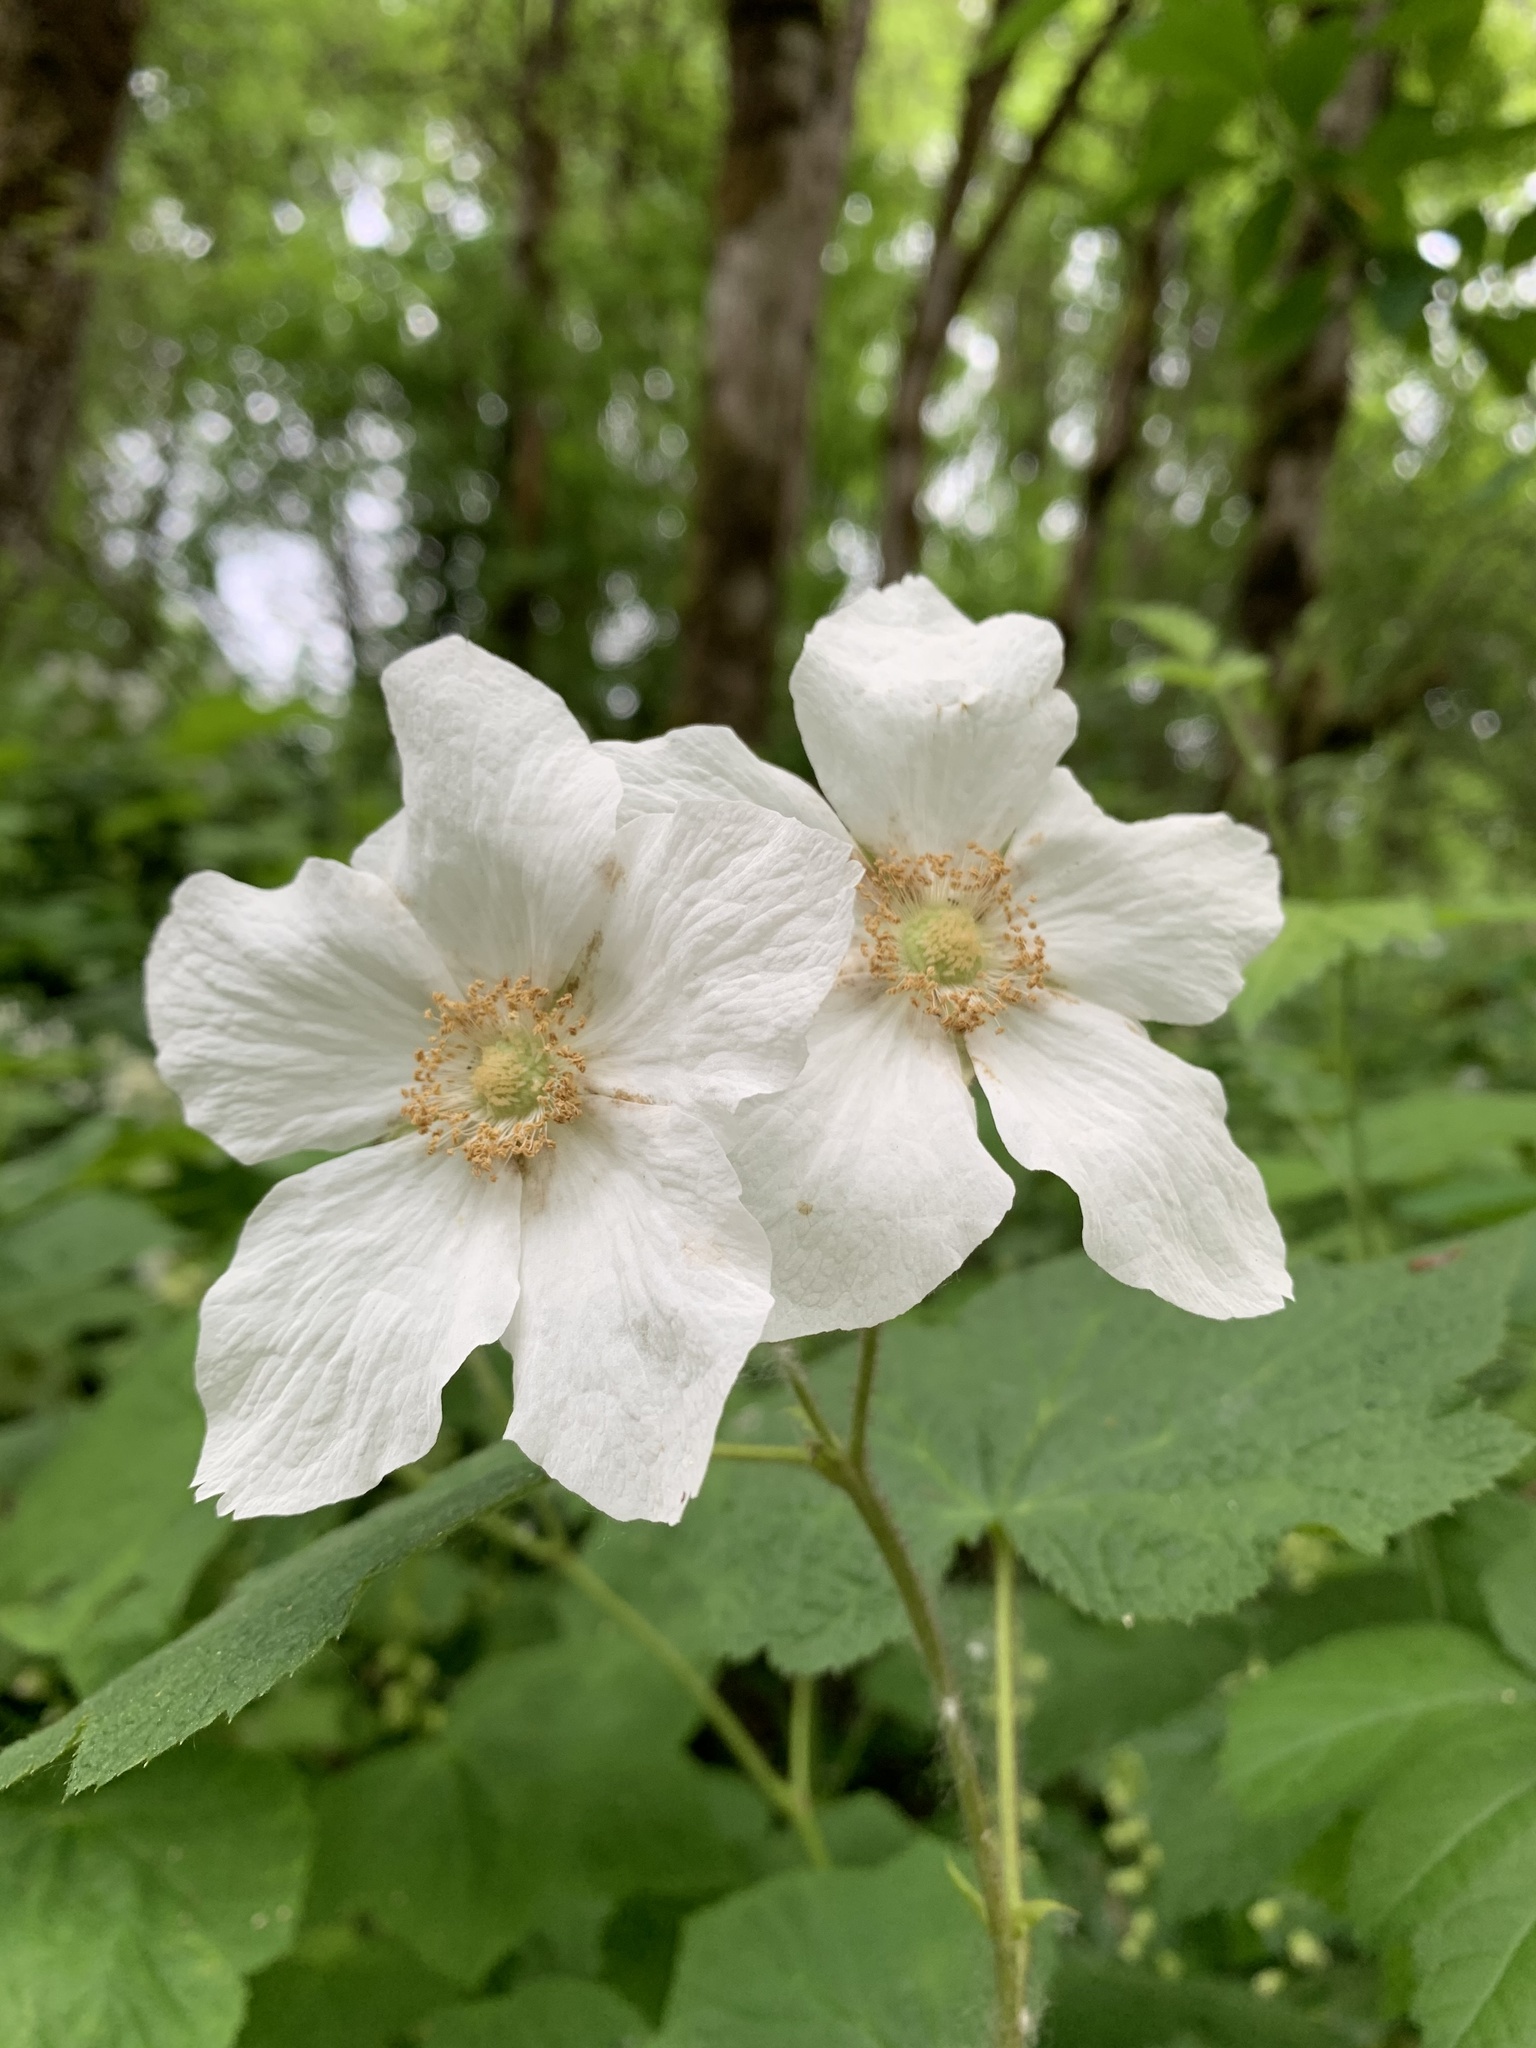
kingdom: Plantae
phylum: Tracheophyta
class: Magnoliopsida
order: Rosales
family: Rosaceae
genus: Rubus
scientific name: Rubus parviflorus
